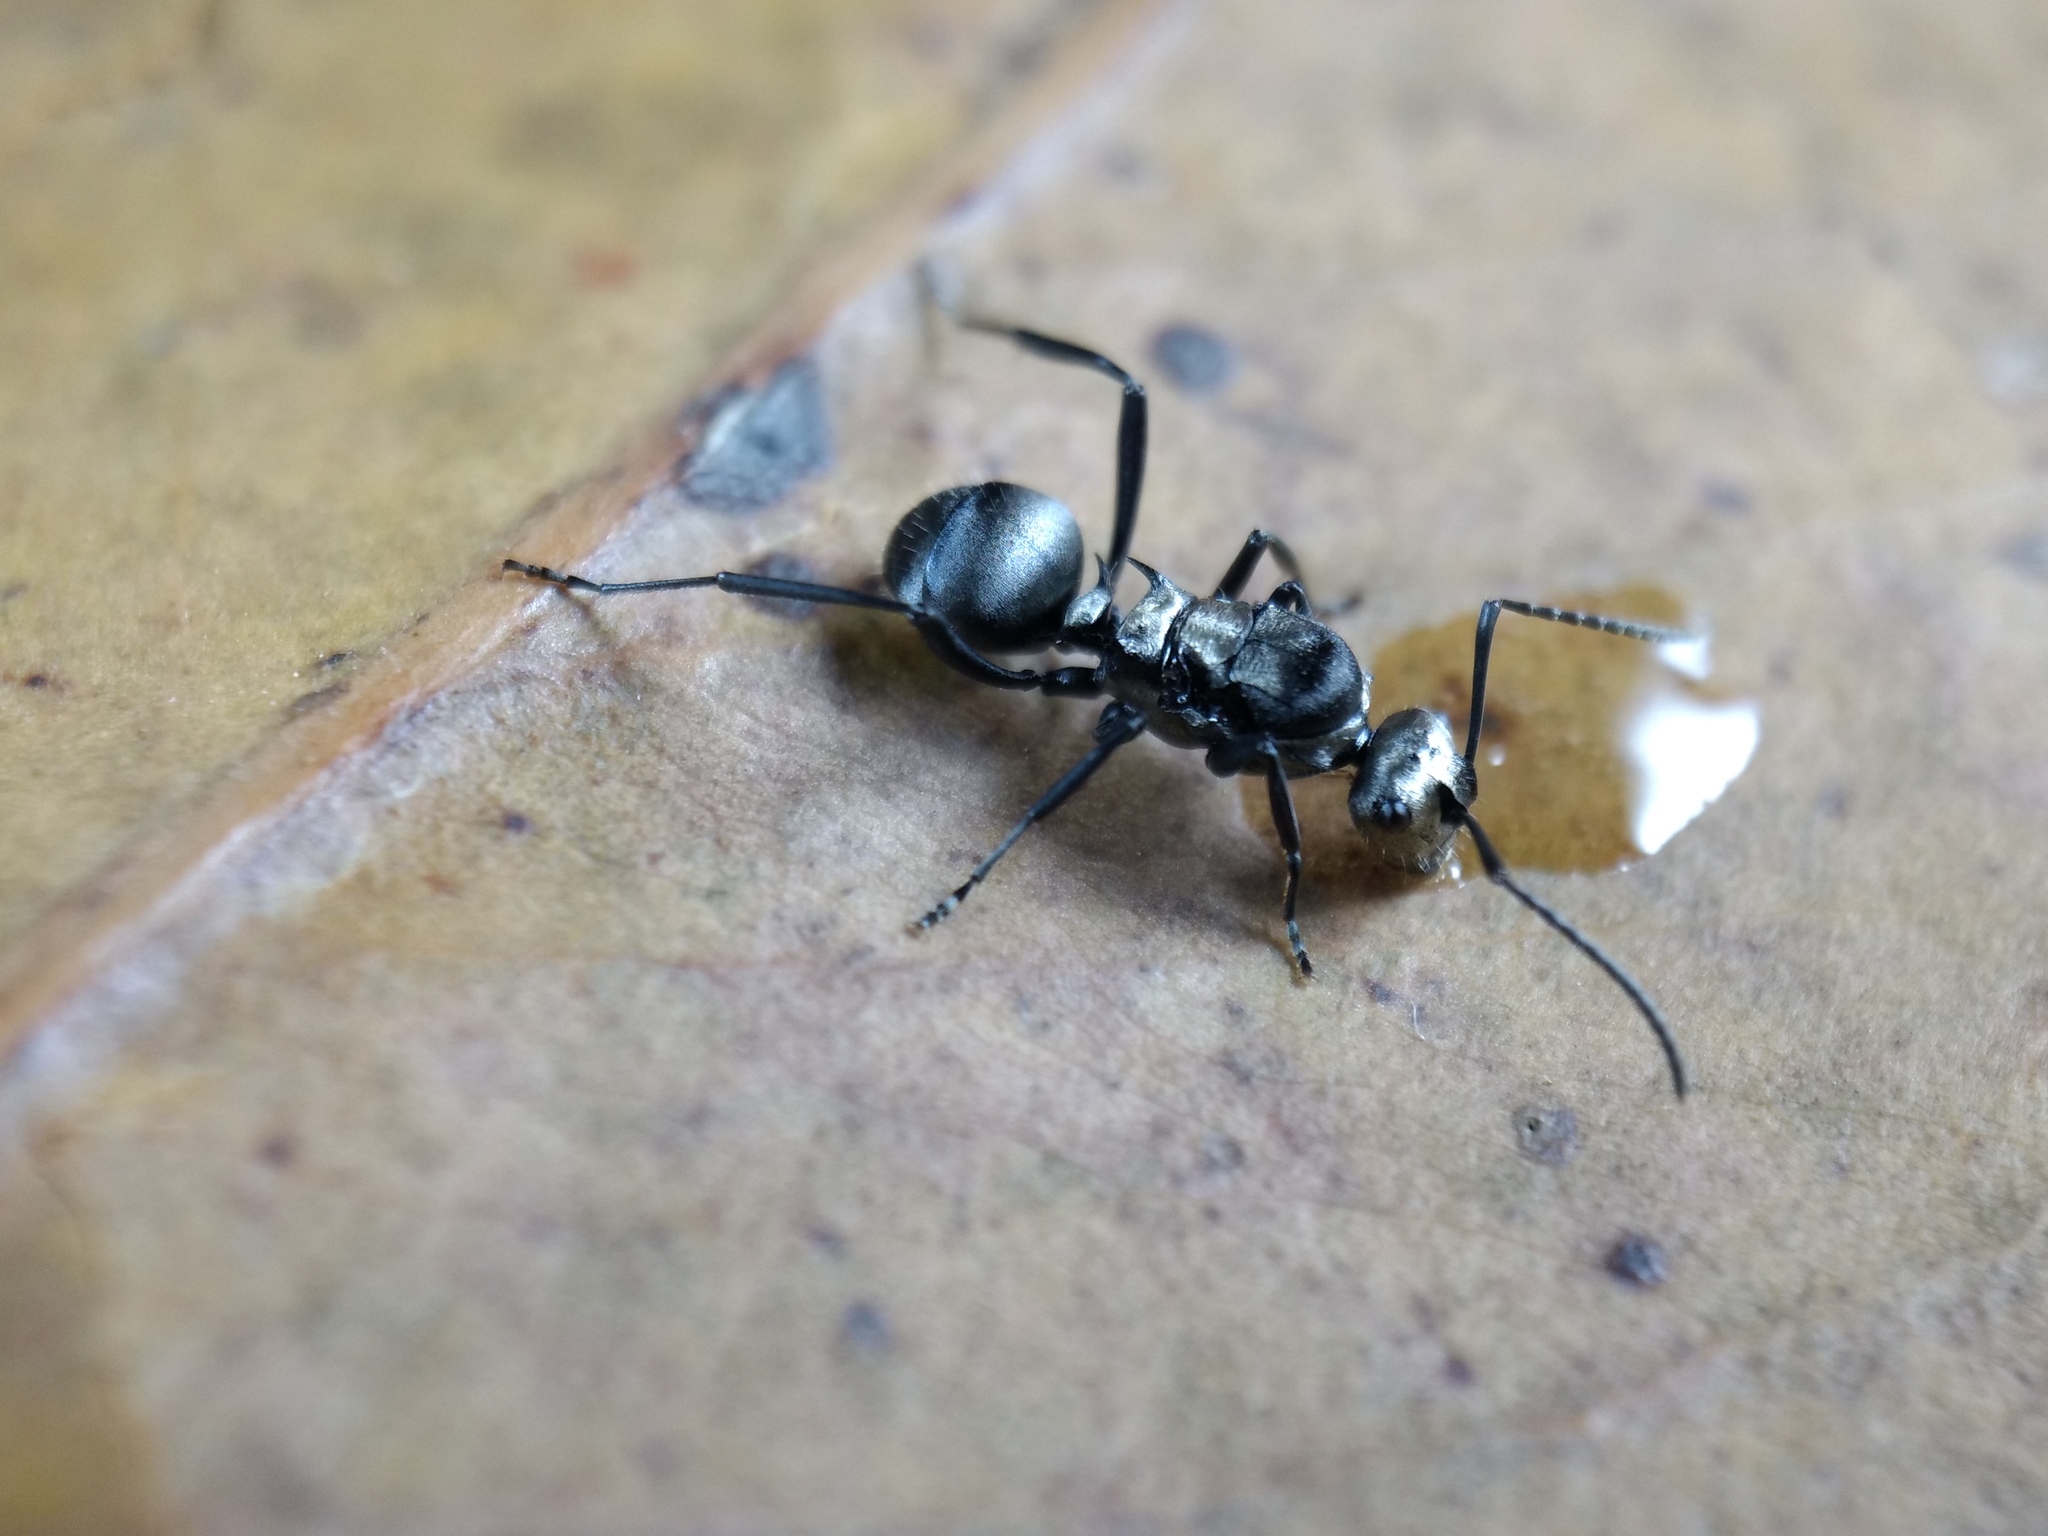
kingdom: Animalia
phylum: Arthropoda
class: Insecta
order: Hymenoptera
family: Formicidae
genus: Polyrhachis
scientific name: Polyrhachis daemeli
